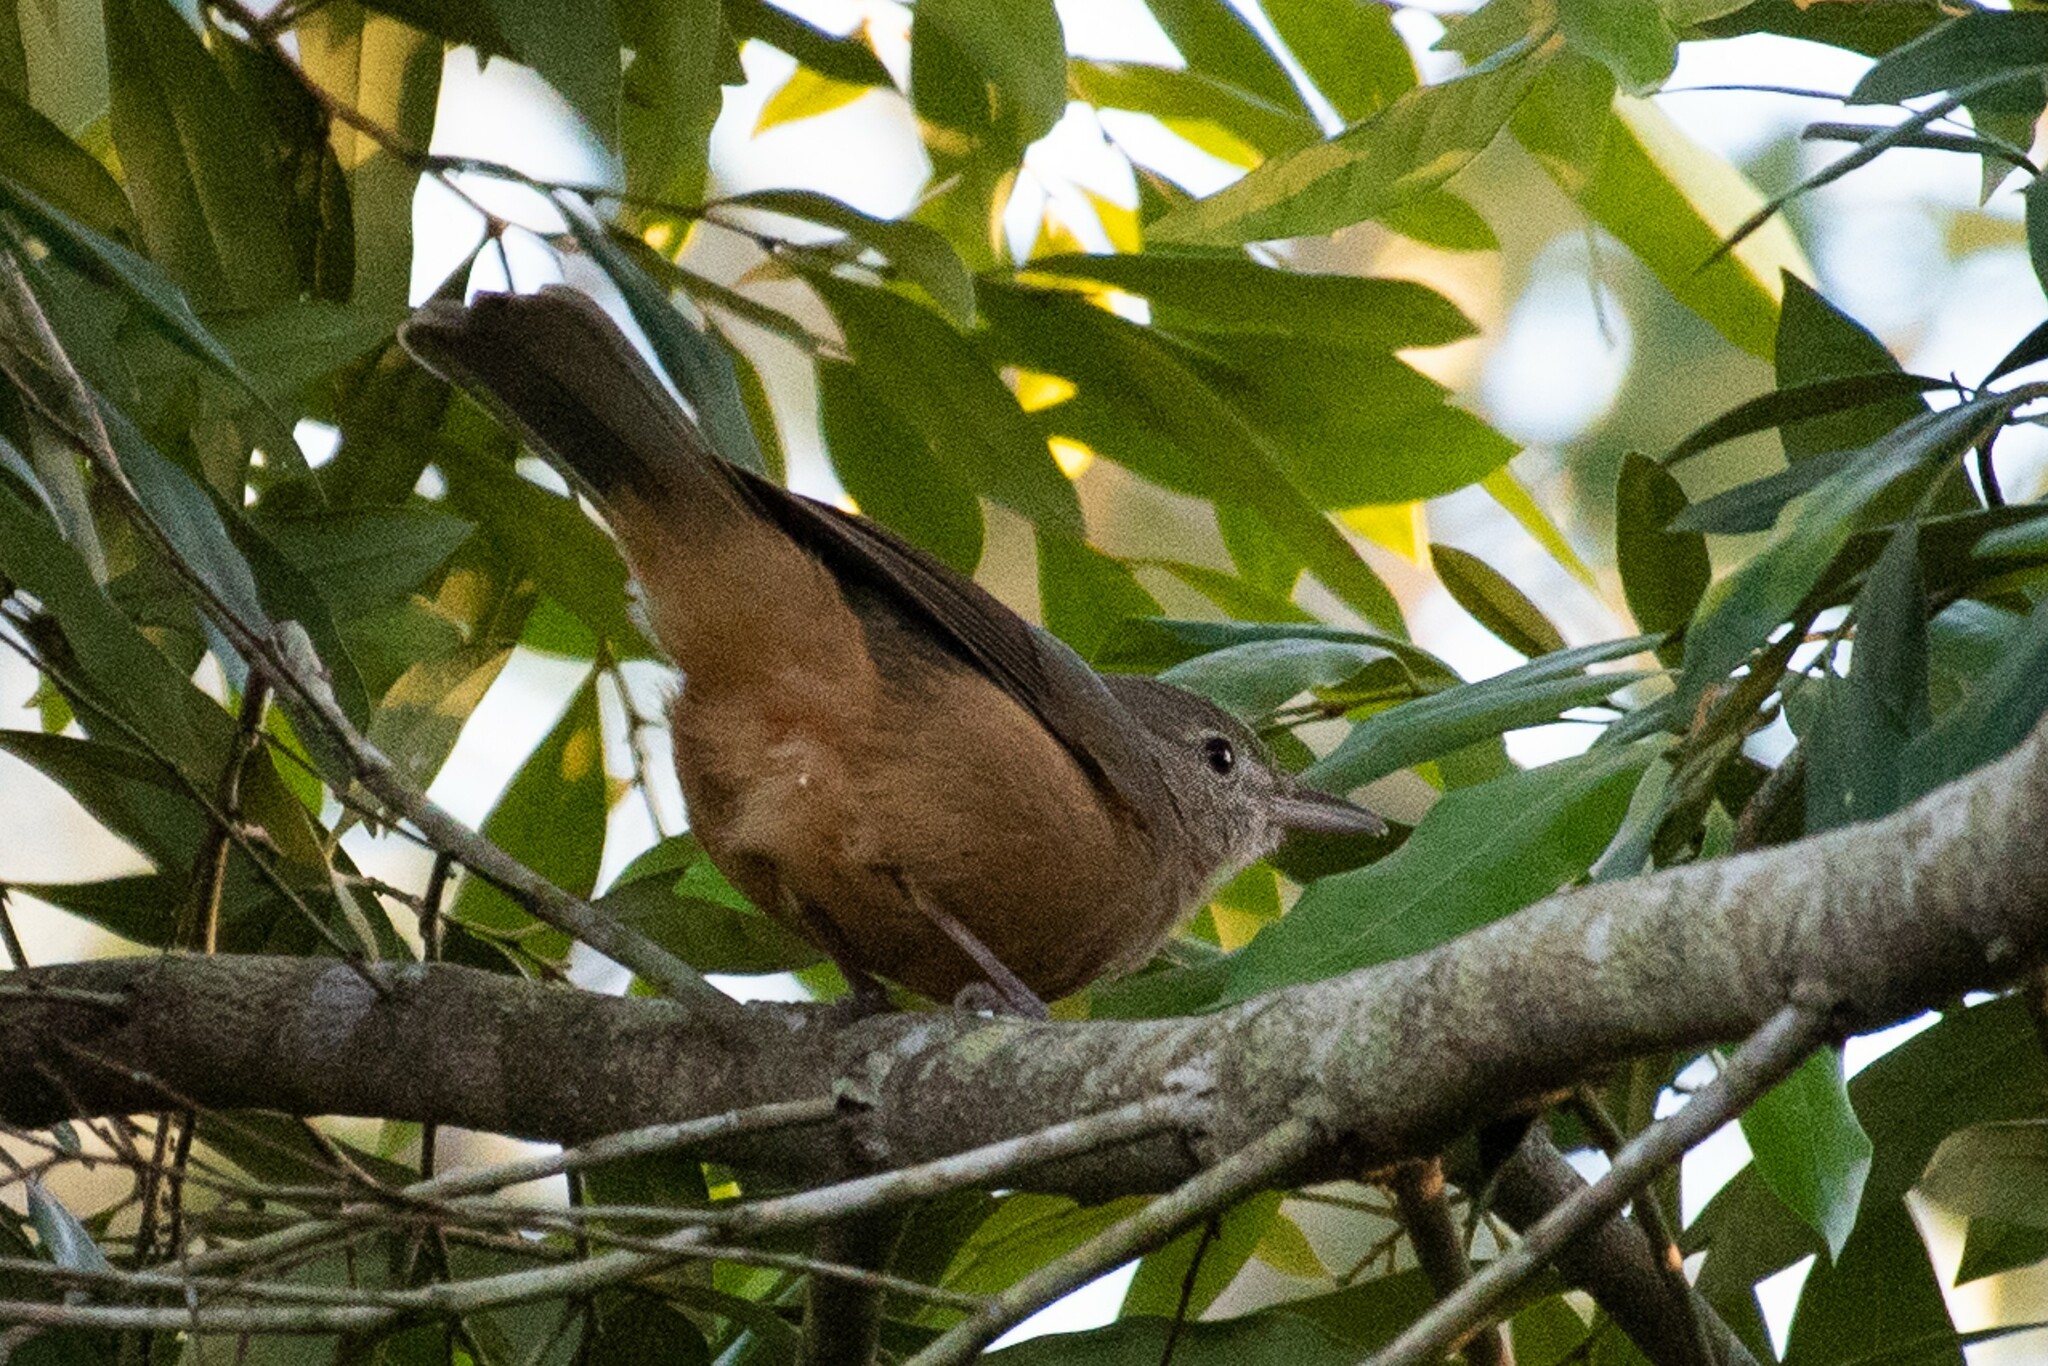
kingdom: Animalia
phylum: Chordata
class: Aves
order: Passeriformes
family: Pachycephalidae
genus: Colluricincla
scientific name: Colluricincla rufogaster
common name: Rufous shrikethrush
